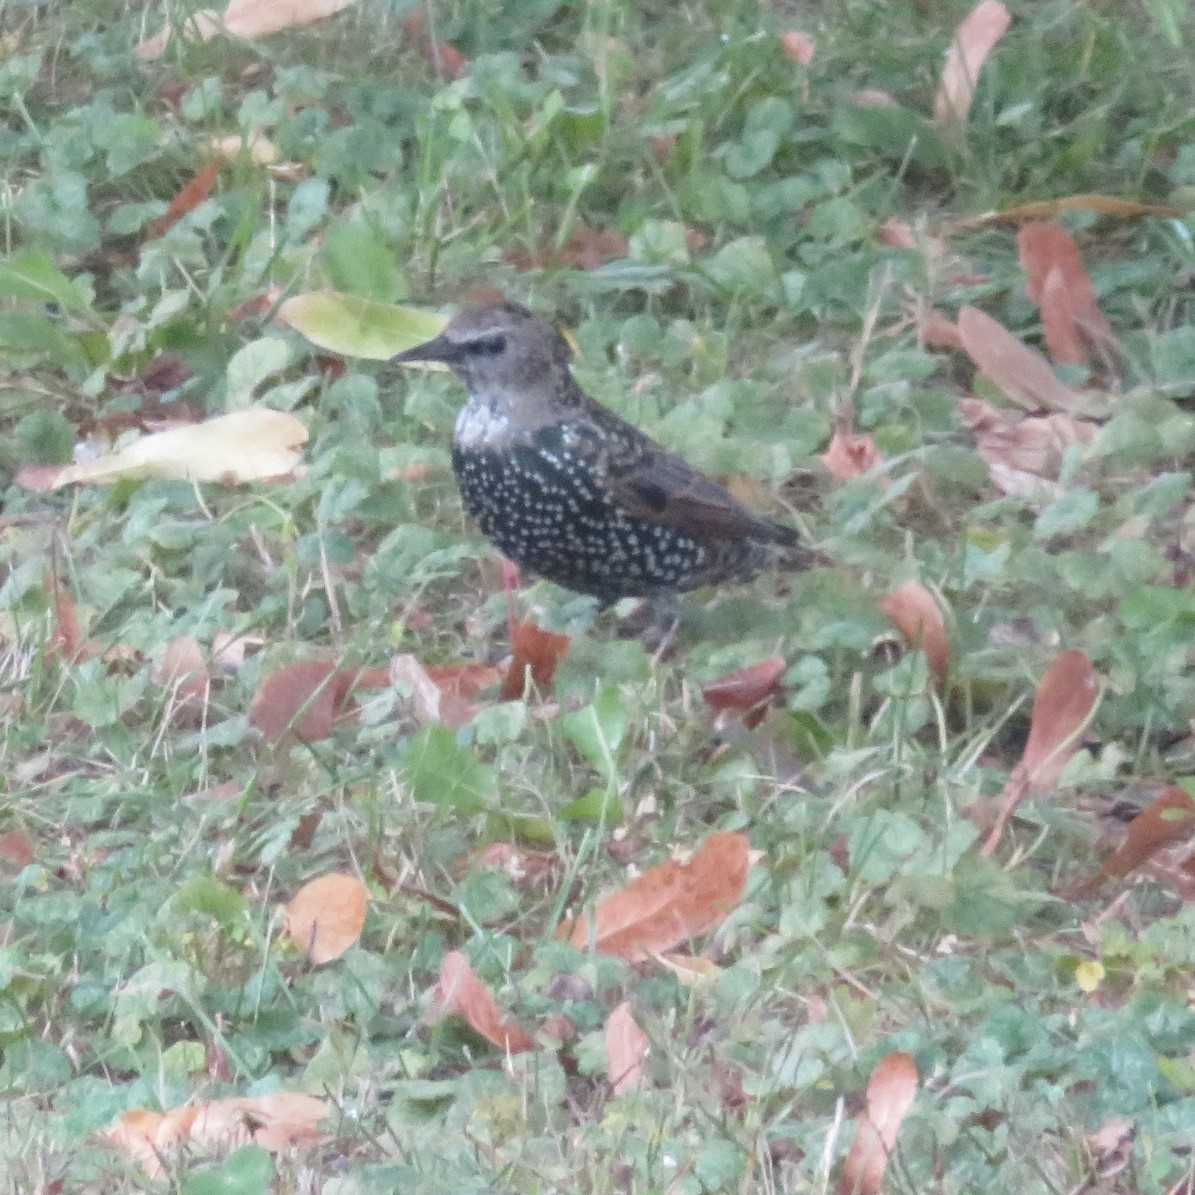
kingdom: Animalia
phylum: Chordata
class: Aves
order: Passeriformes
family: Sturnidae
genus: Sturnus
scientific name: Sturnus vulgaris
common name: Common starling
